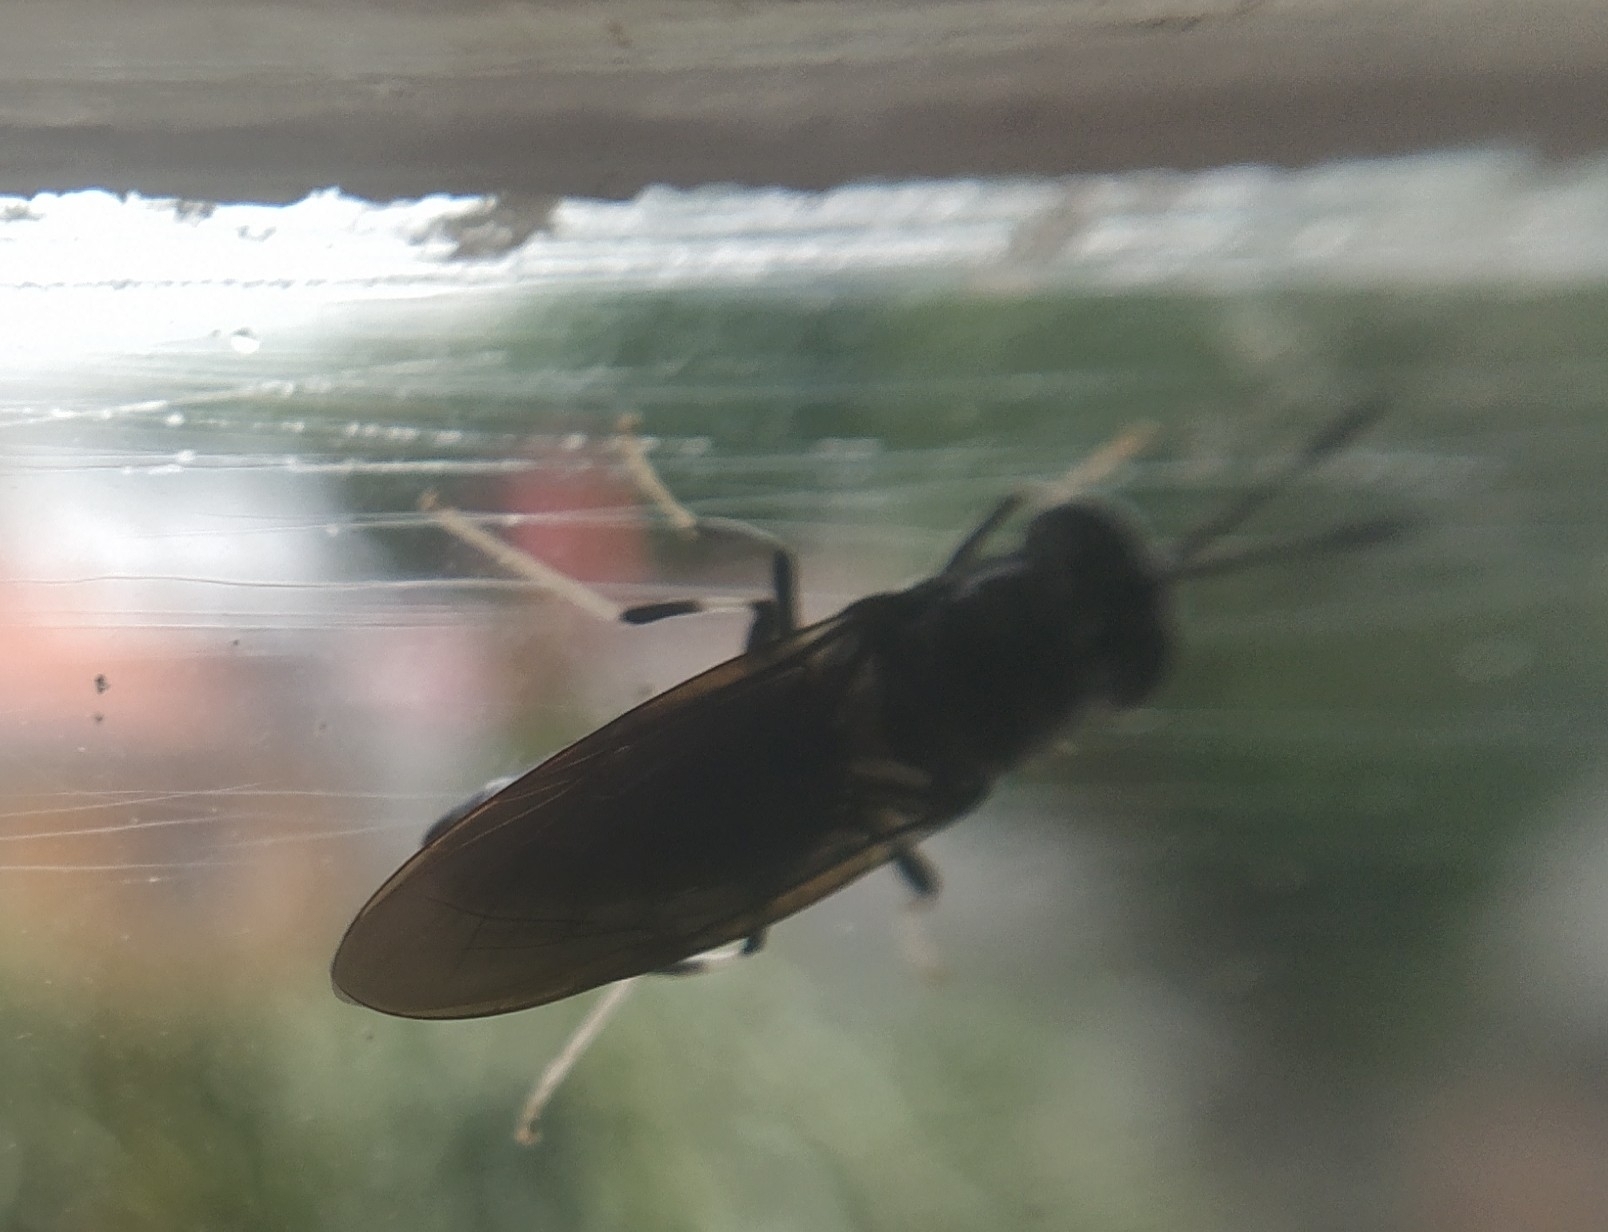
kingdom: Animalia
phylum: Arthropoda
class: Insecta
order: Diptera
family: Stratiomyidae
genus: Hermetia
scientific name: Hermetia illucens
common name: Black soldier fly
